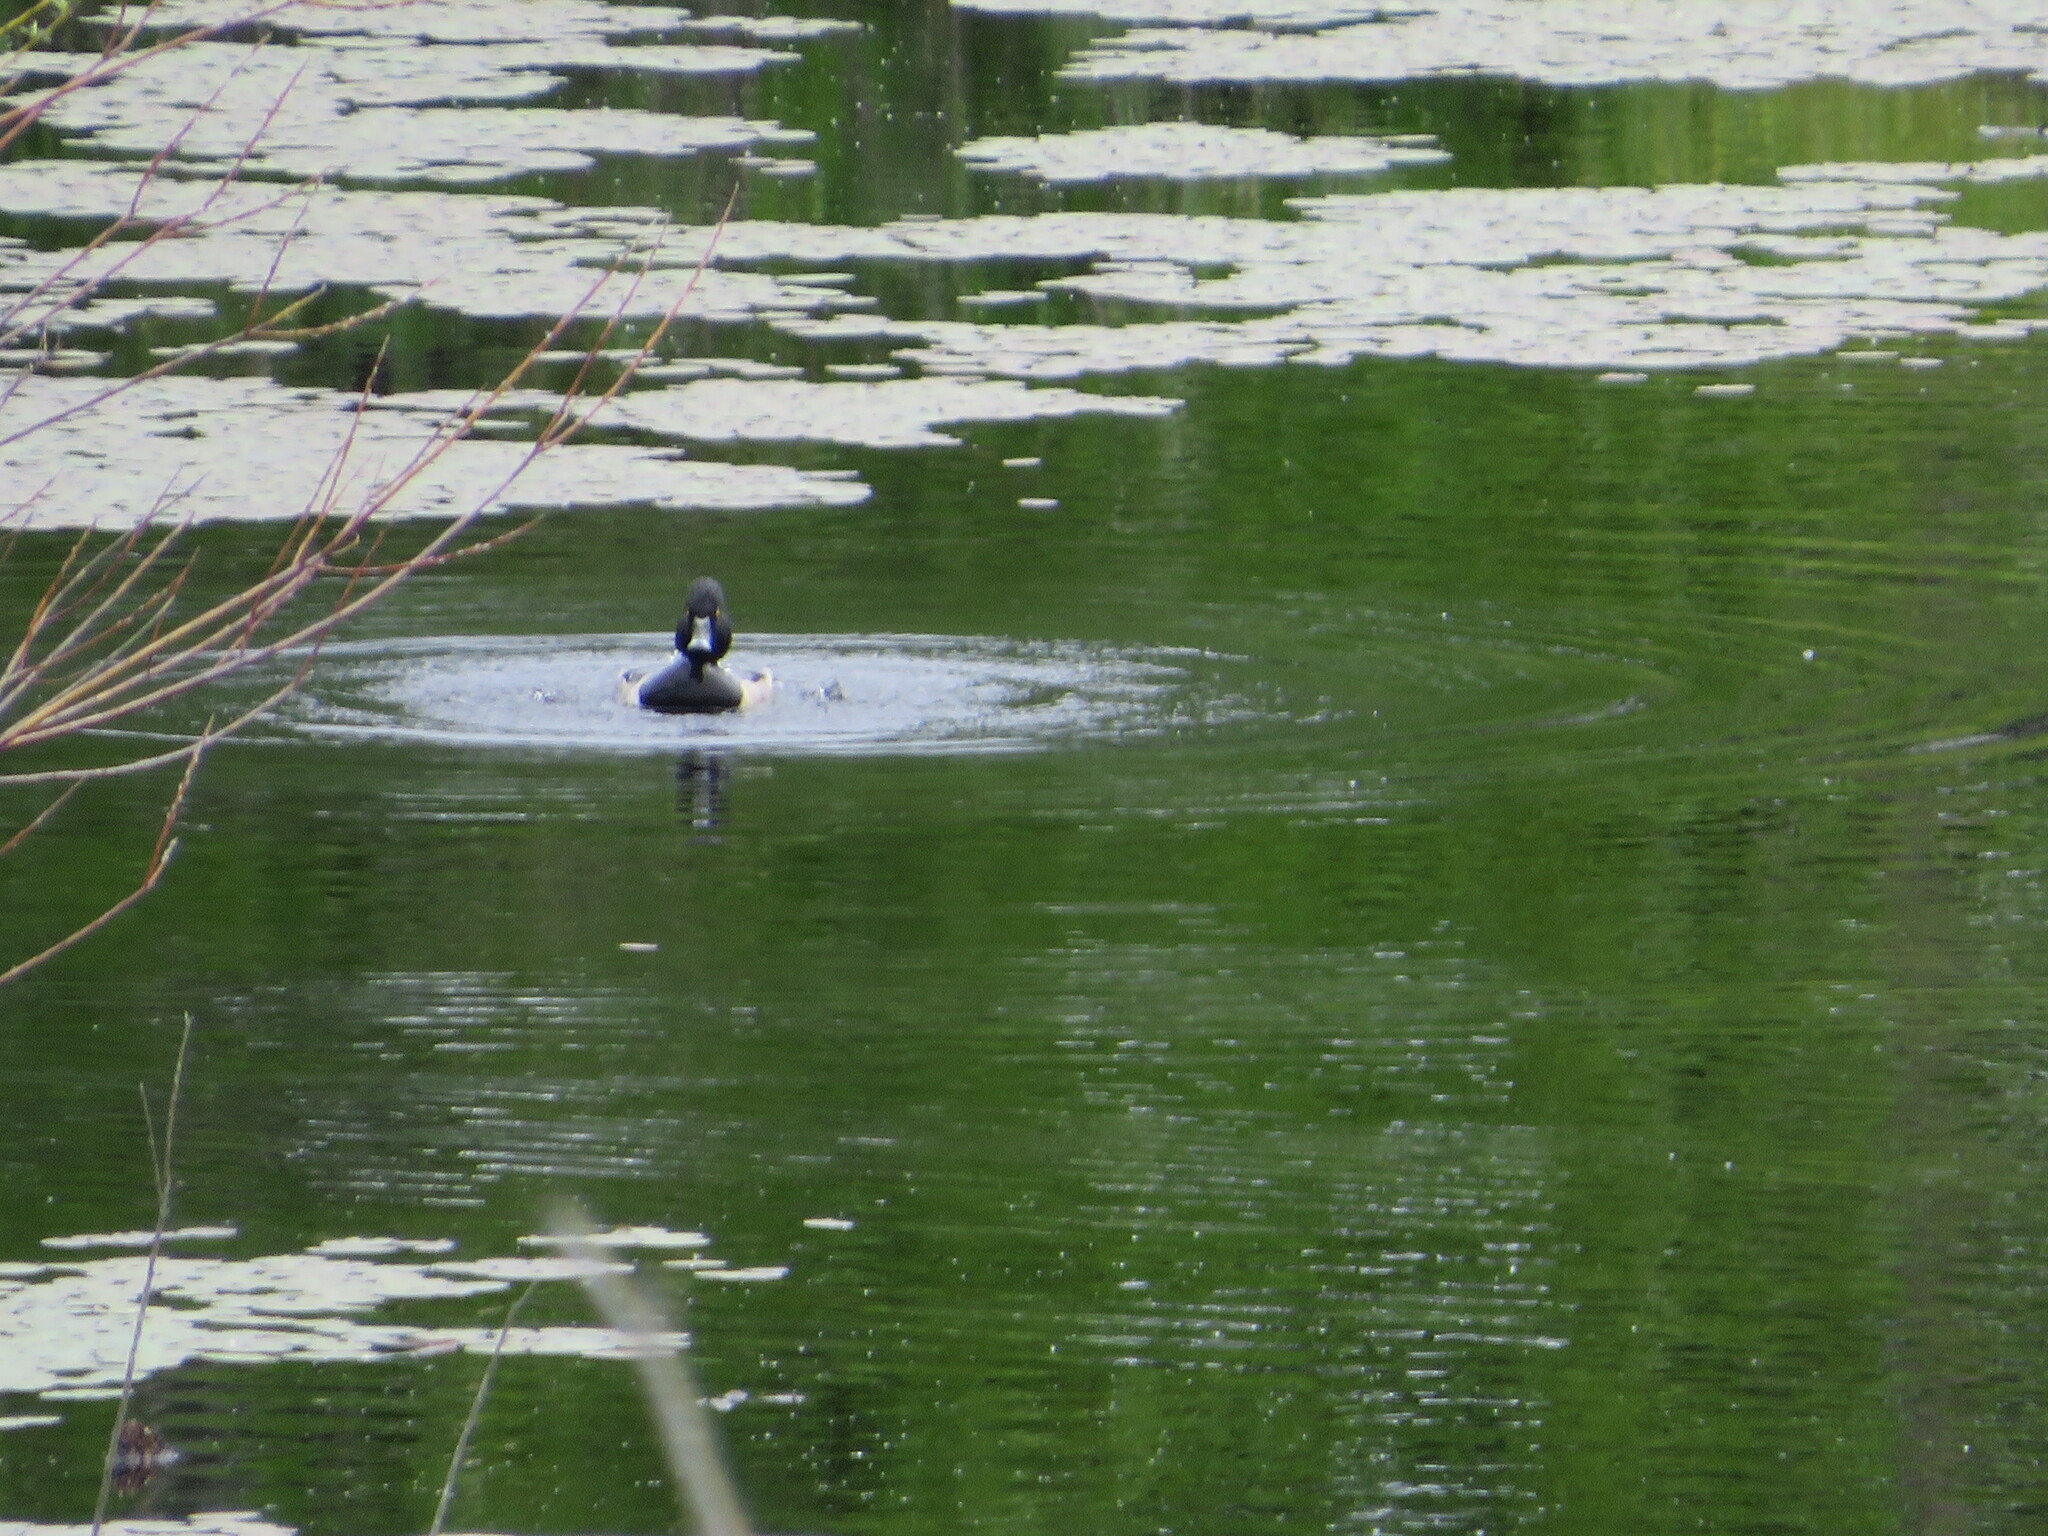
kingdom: Animalia
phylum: Chordata
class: Aves
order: Anseriformes
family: Anatidae
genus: Aythya
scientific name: Aythya collaris
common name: Ring-necked duck
